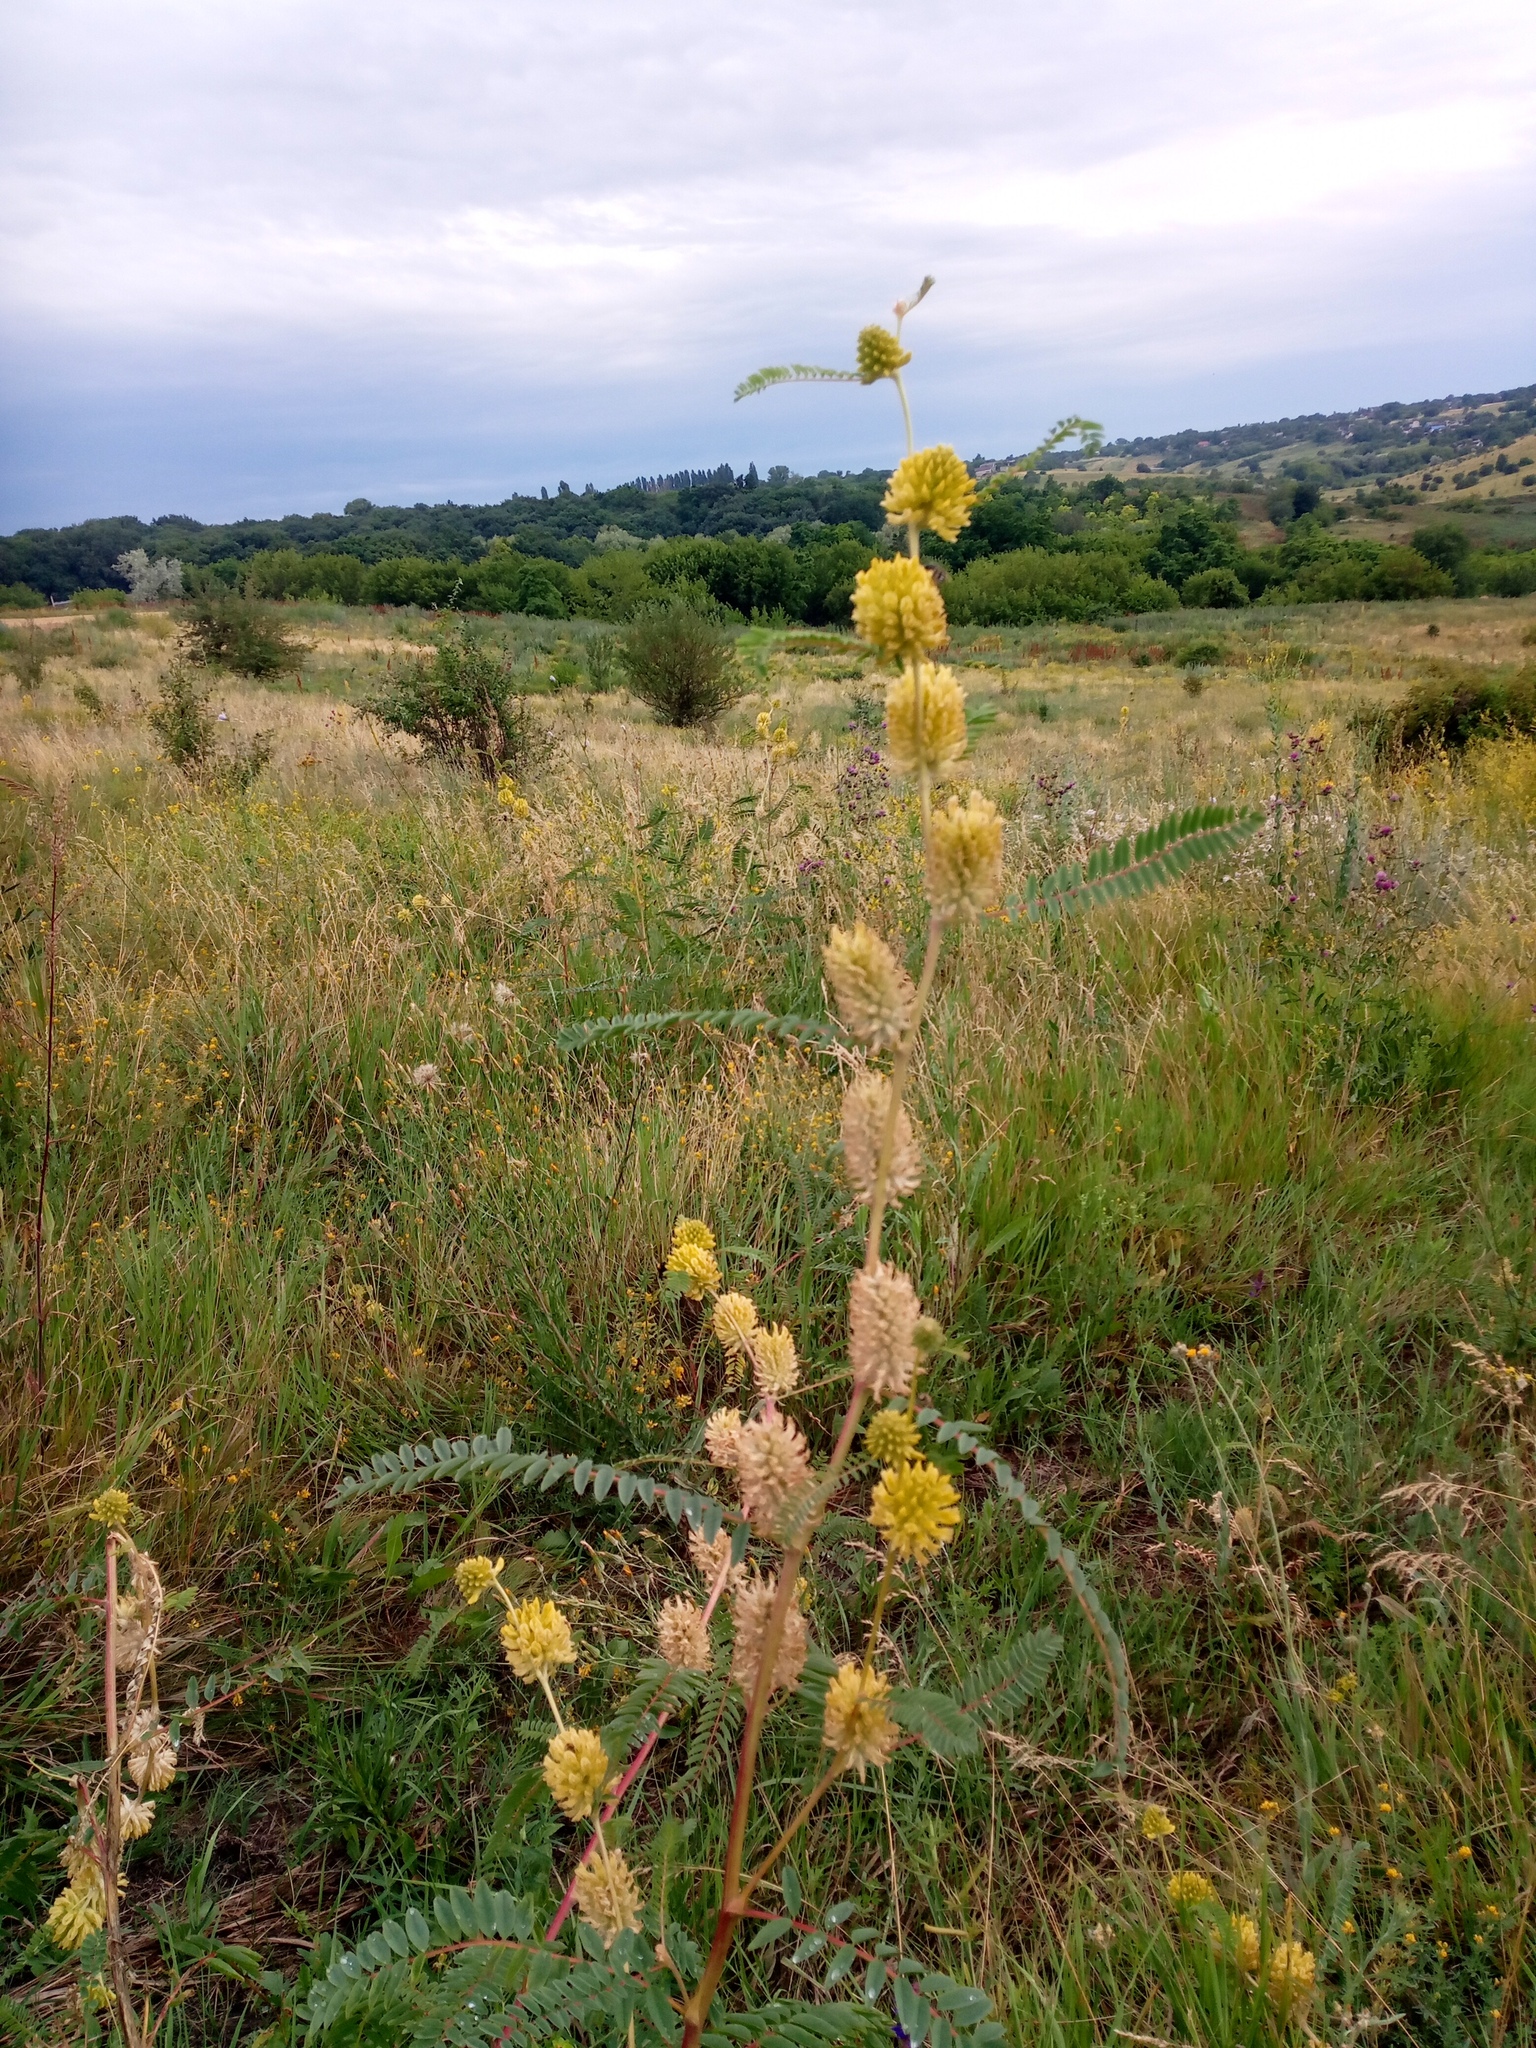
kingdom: Plantae
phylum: Tracheophyta
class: Magnoliopsida
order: Fabales
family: Fabaceae
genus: Astragalus
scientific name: Astragalus ponticus
